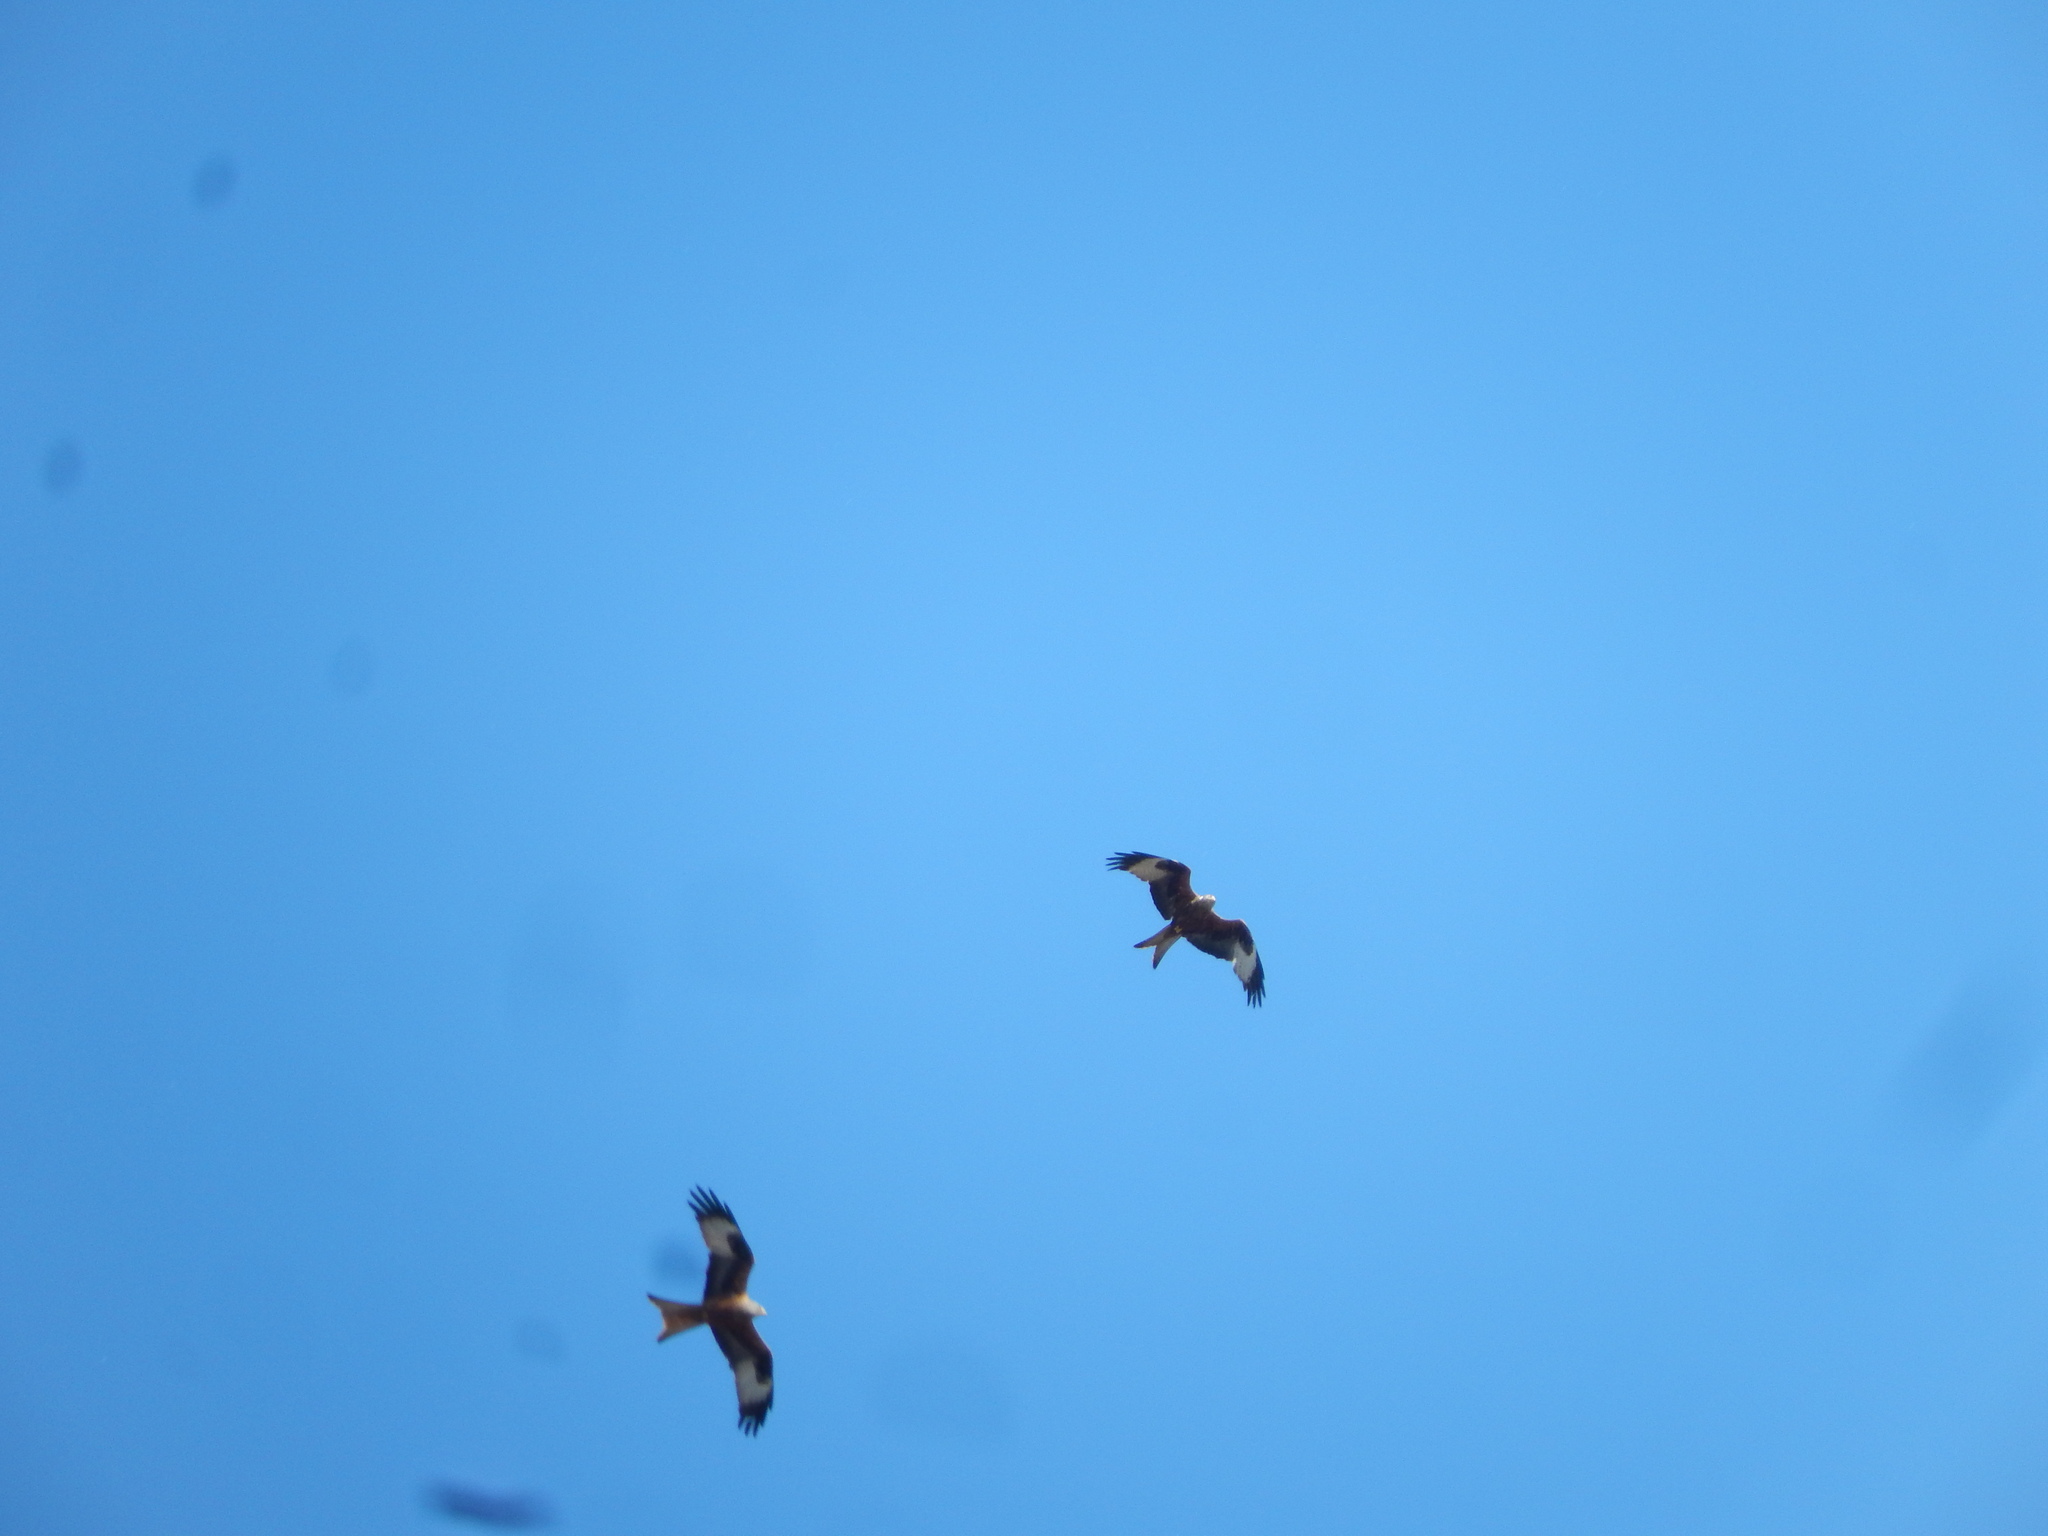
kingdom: Animalia
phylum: Chordata
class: Aves
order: Accipitriformes
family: Accipitridae
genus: Milvus
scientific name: Milvus milvus
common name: Red kite
